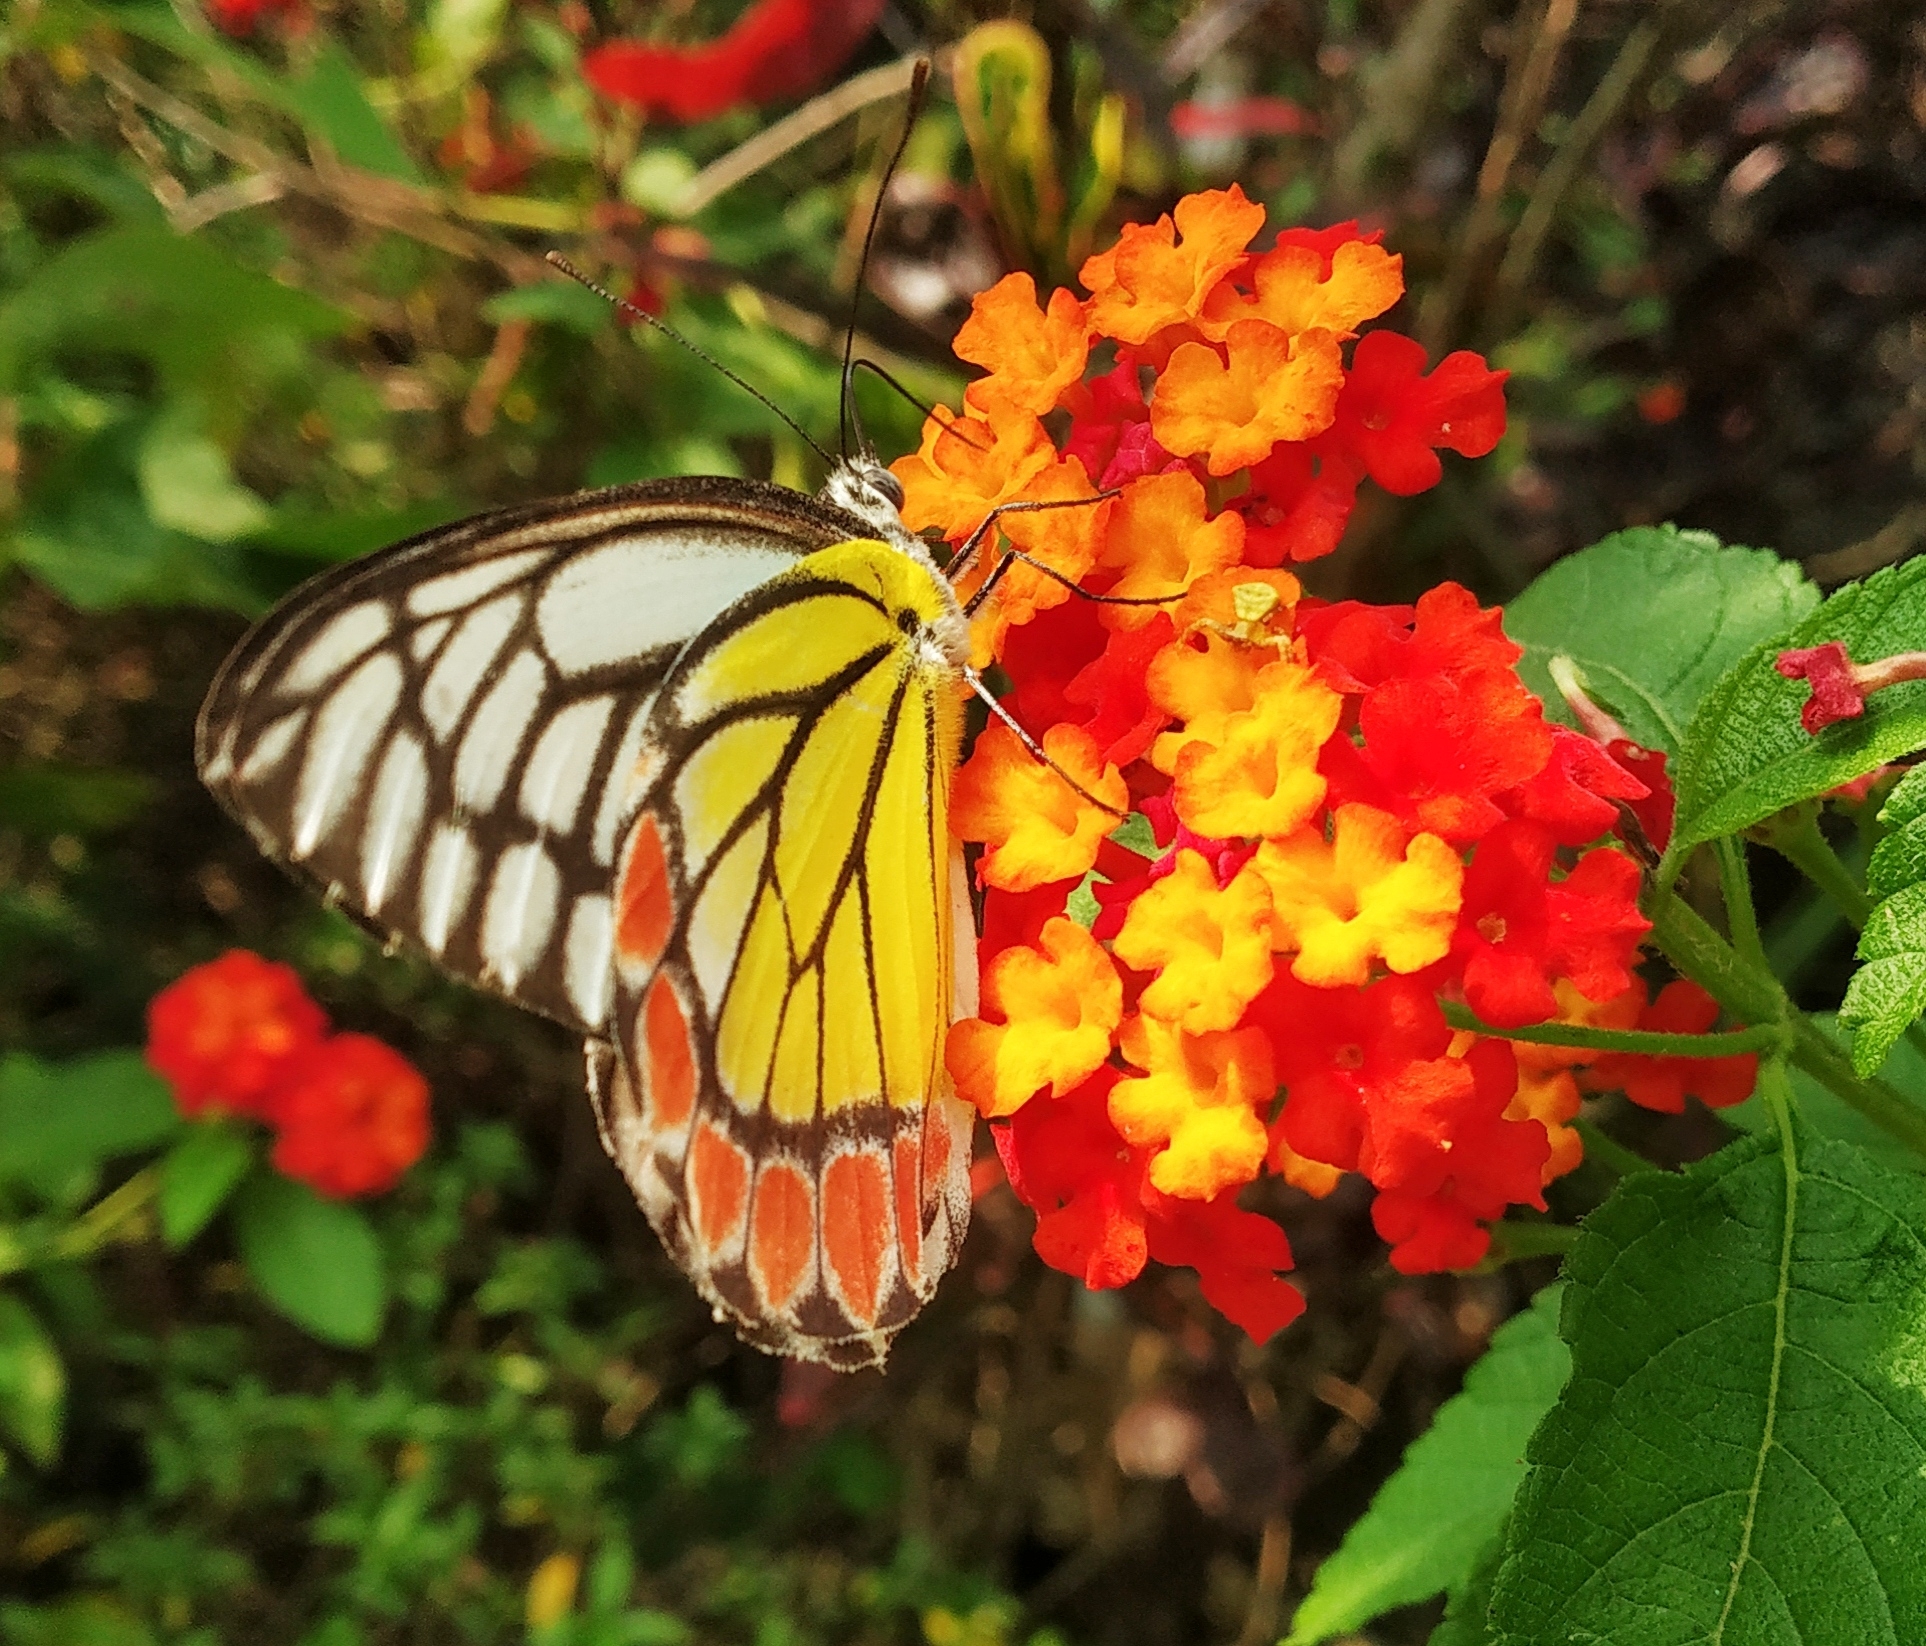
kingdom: Animalia
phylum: Arthropoda
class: Insecta
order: Lepidoptera
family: Pieridae
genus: Delias
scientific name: Delias eucharis
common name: Common jezebel
